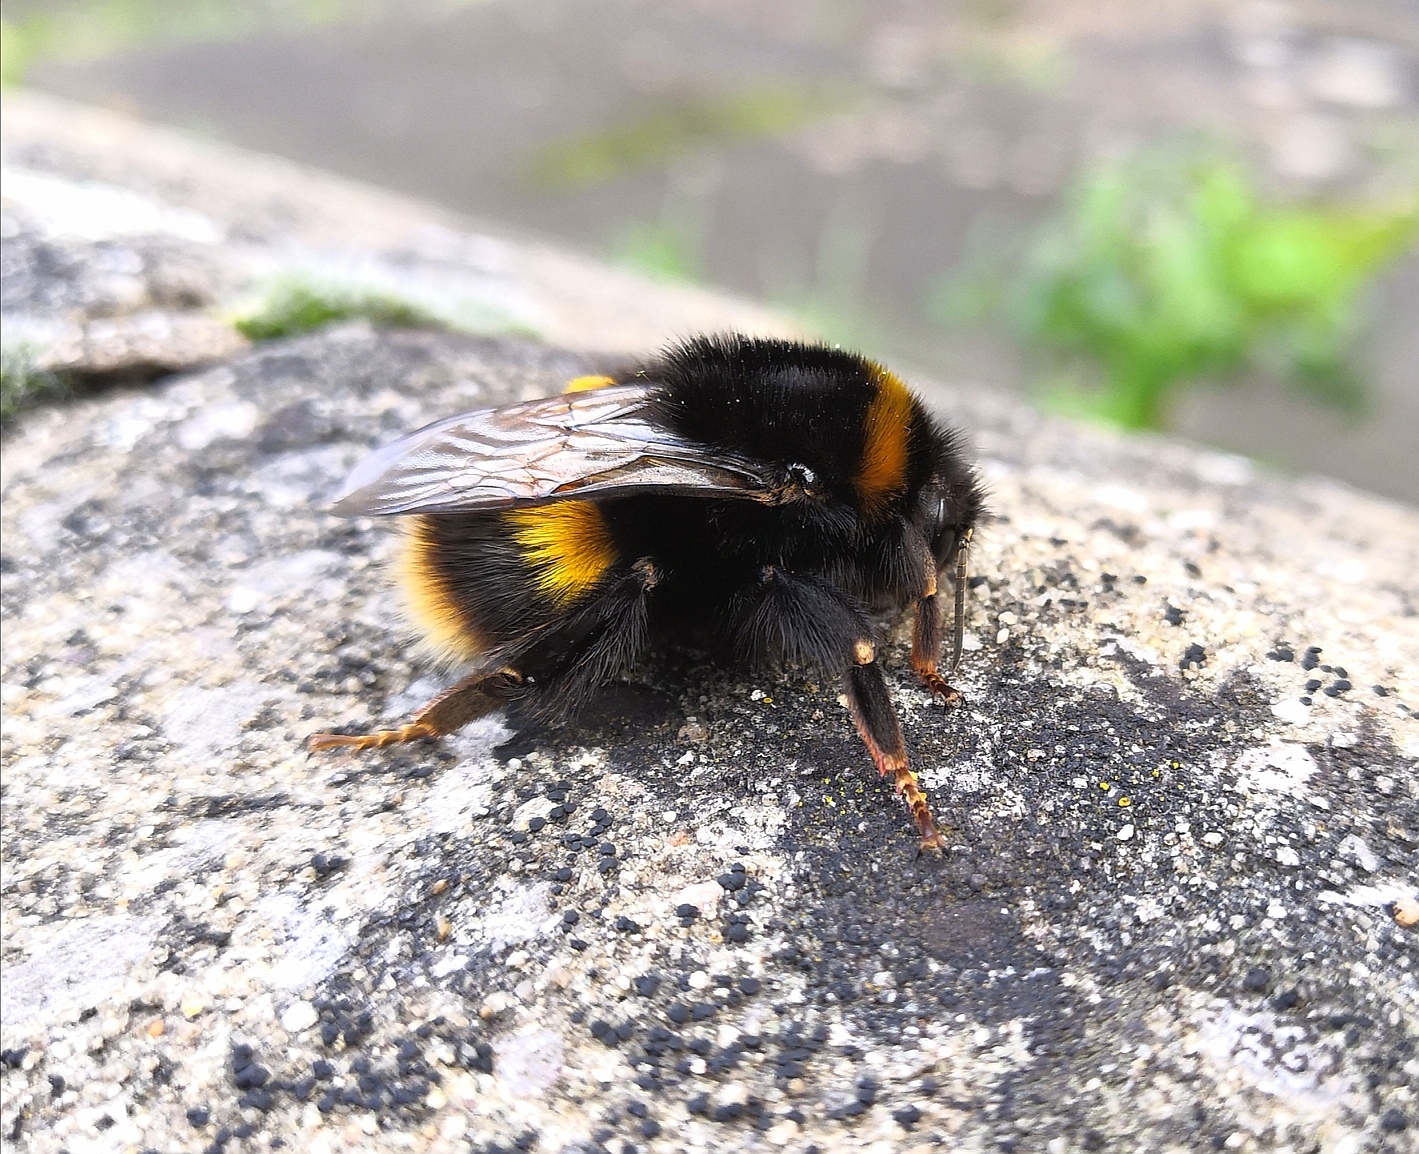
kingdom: Animalia
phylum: Arthropoda
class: Insecta
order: Hymenoptera
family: Apidae
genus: Bombus
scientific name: Bombus terrestris
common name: Buff-tailed bumblebee
